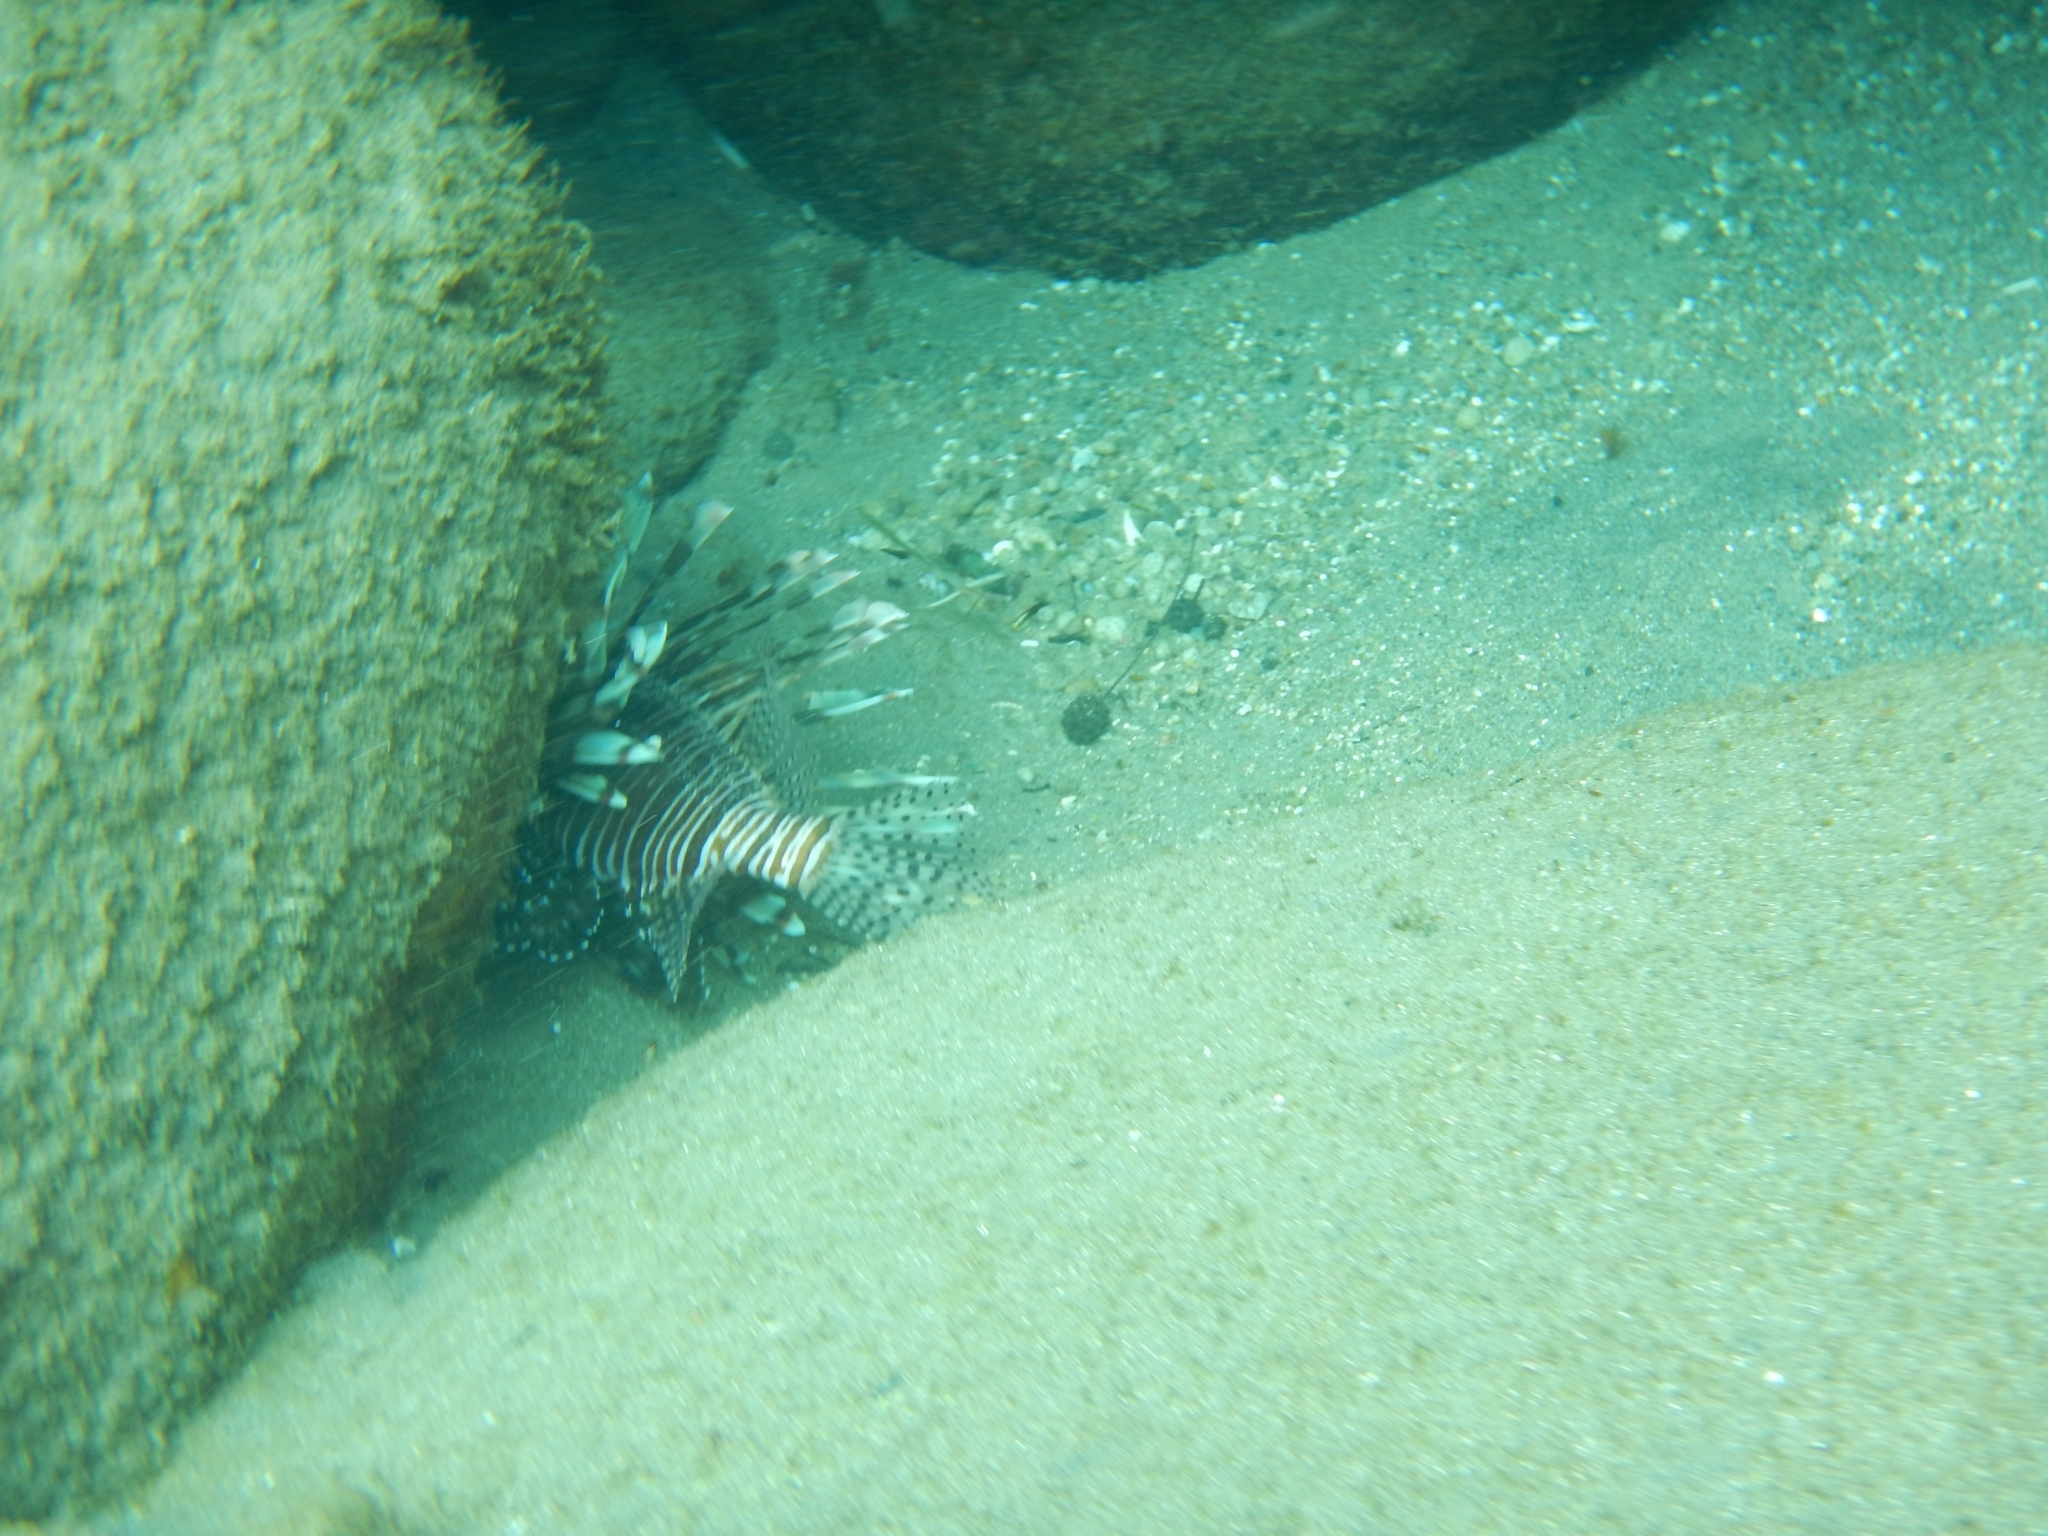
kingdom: Animalia
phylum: Chordata
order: Scorpaeniformes
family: Scorpaenidae
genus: Pterois
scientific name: Pterois volitans
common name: Lionfish
